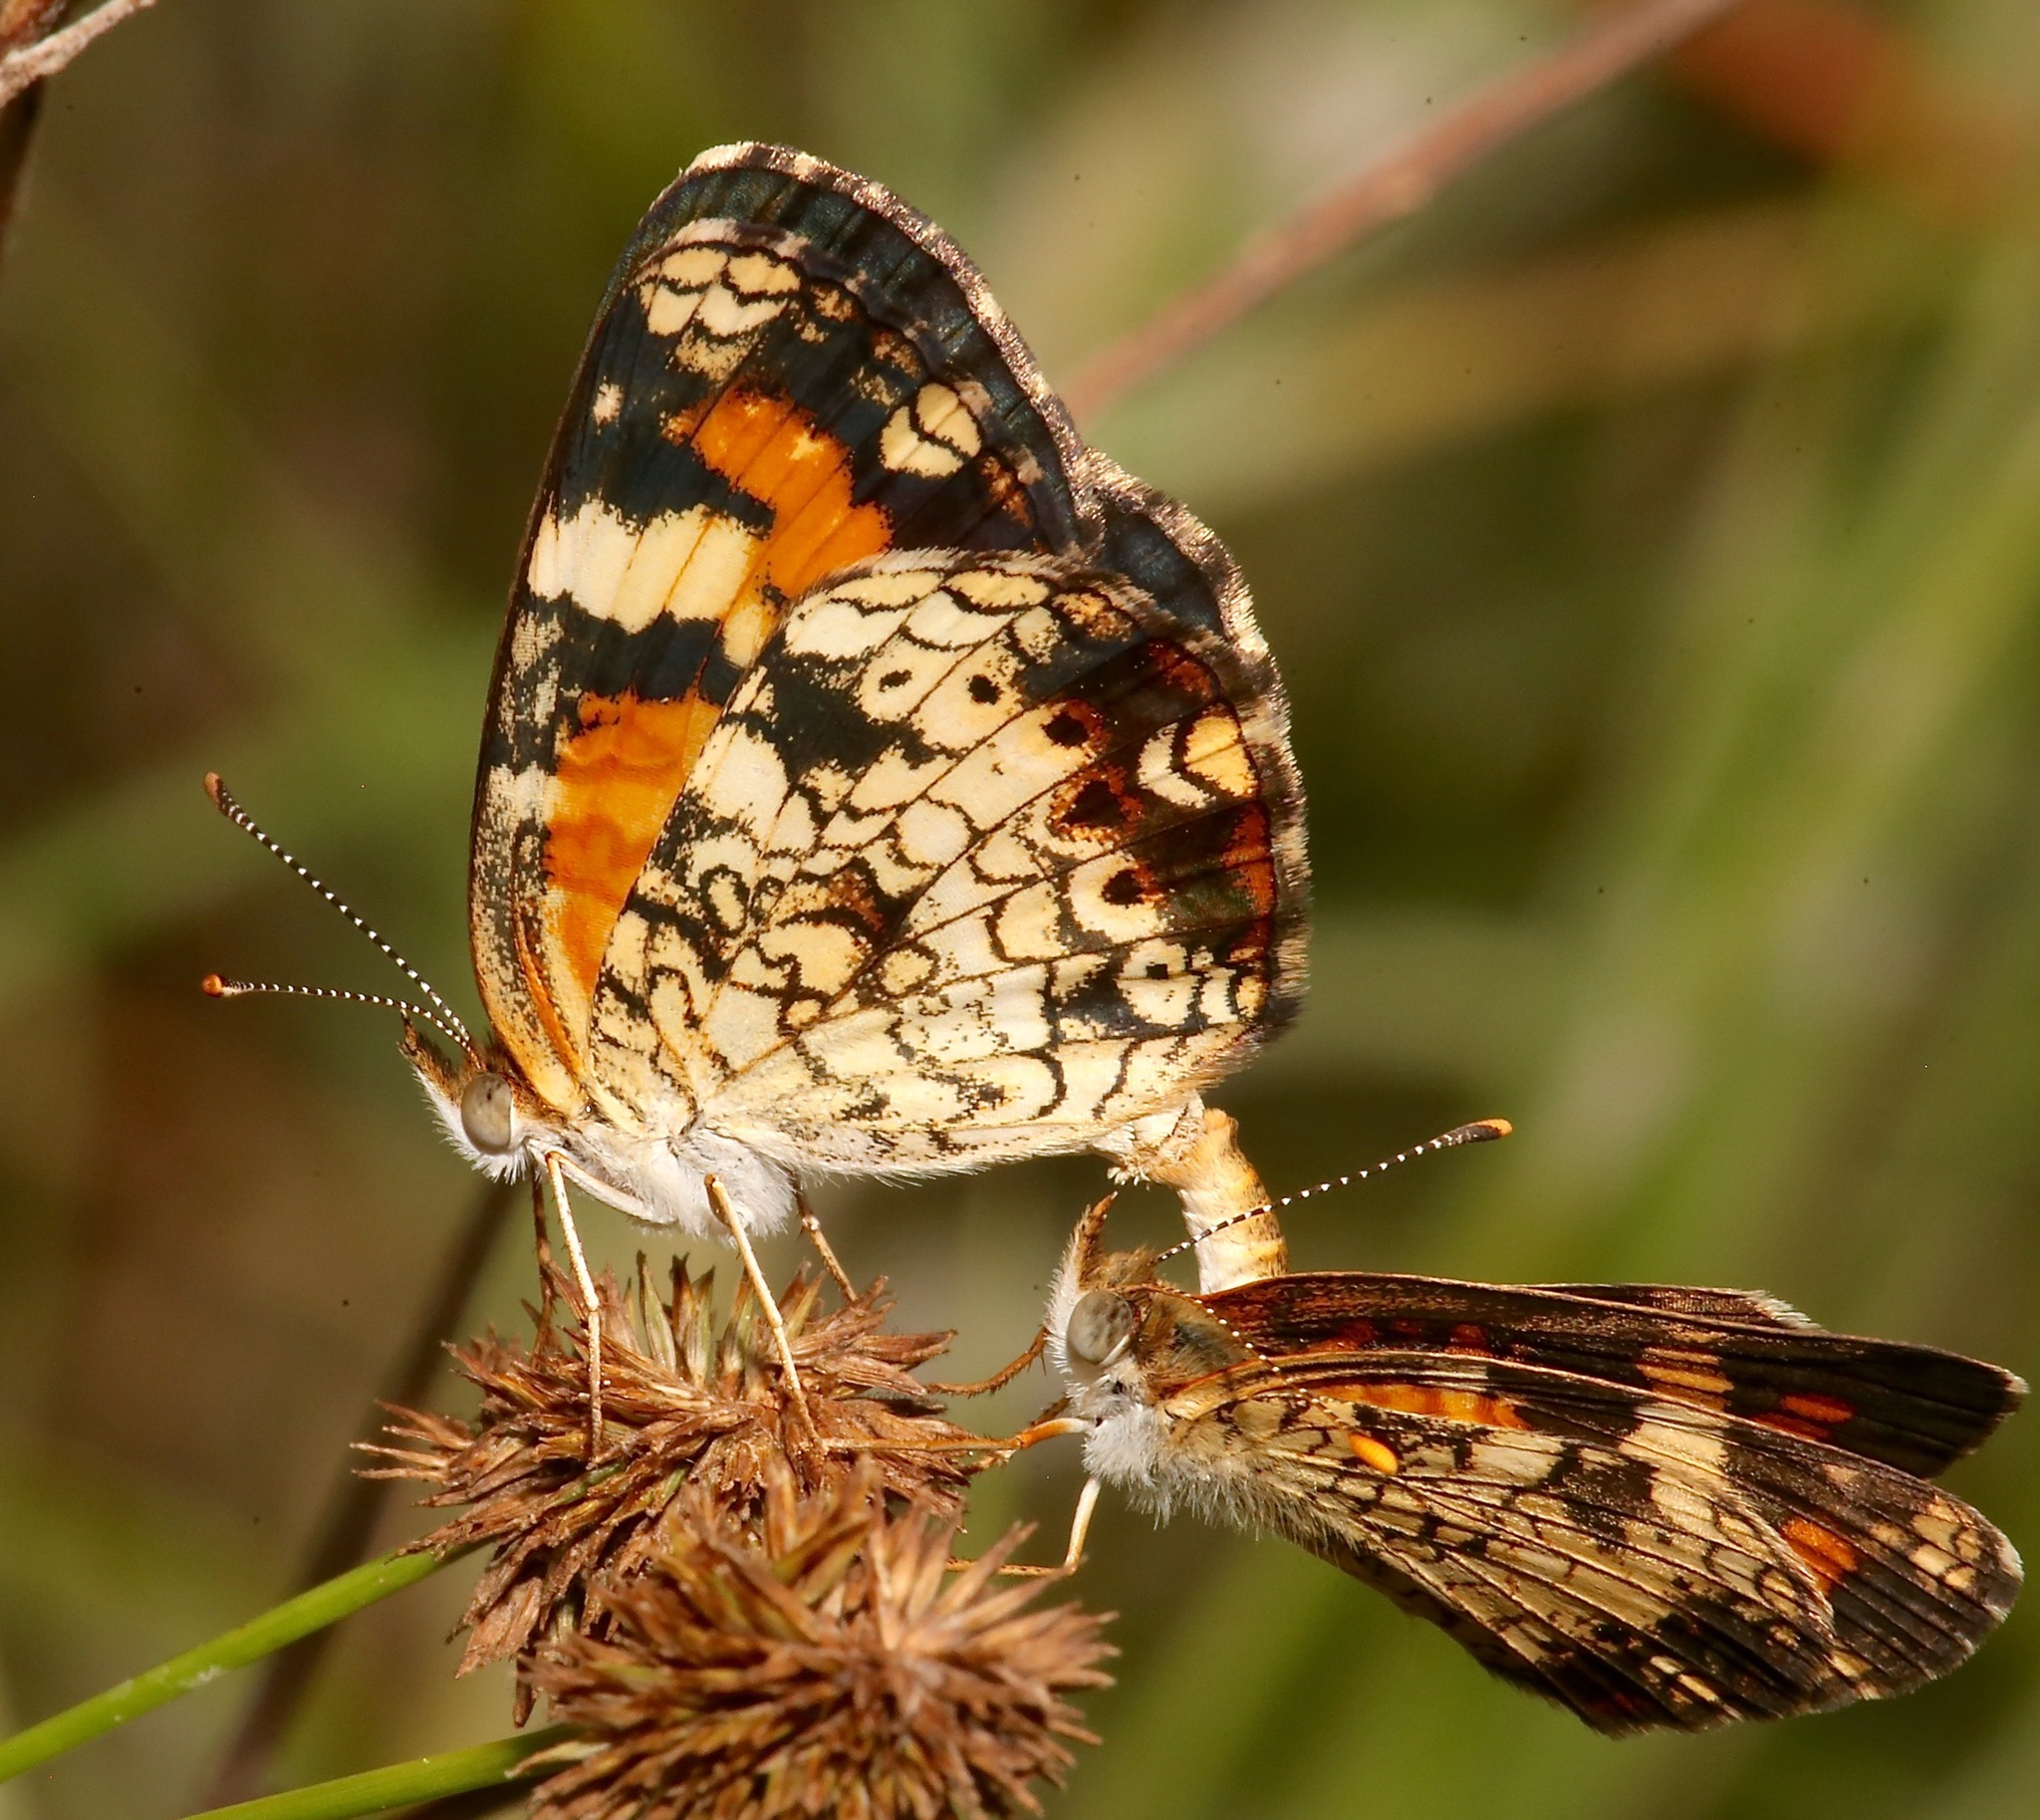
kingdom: Animalia
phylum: Arthropoda
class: Insecta
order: Lepidoptera
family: Nymphalidae
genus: Phyciodes
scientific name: Phyciodes phaon
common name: Phaon crescent
